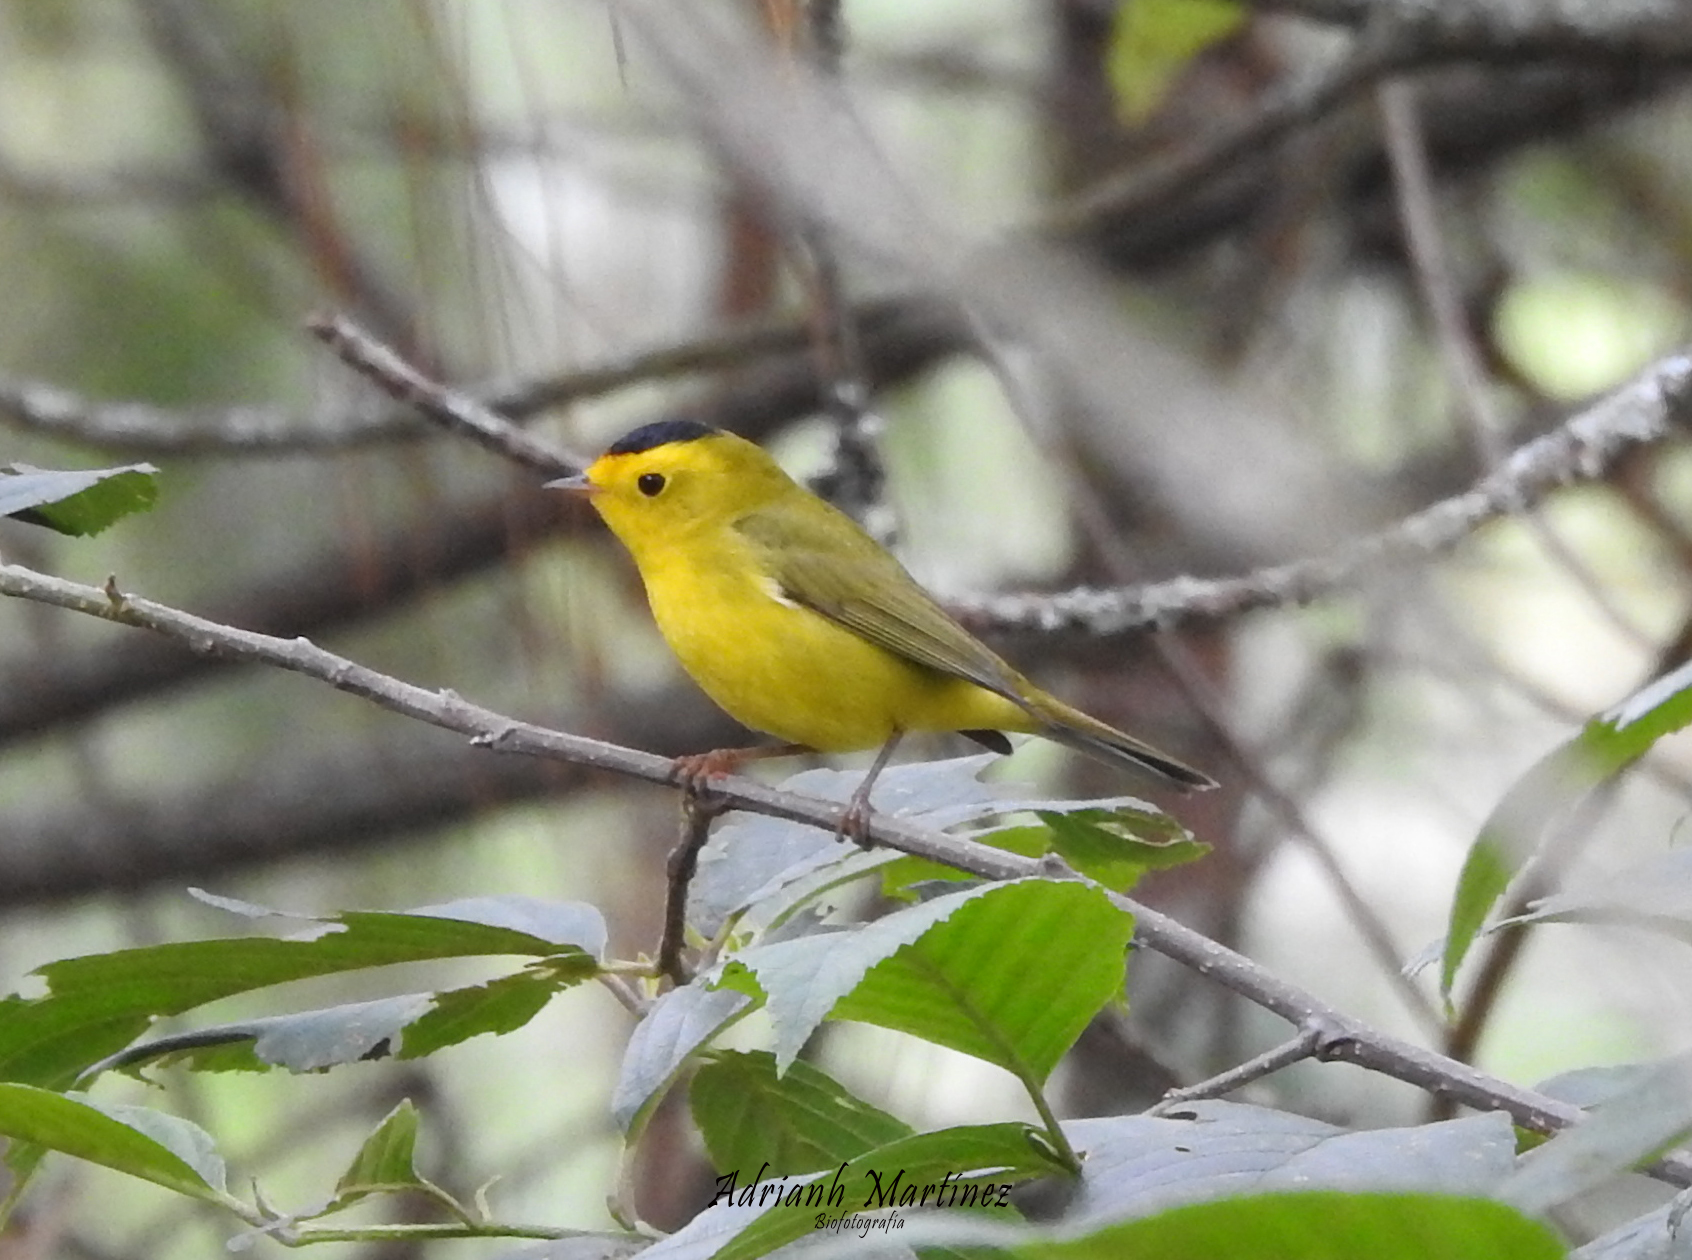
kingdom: Animalia
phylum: Chordata
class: Aves
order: Passeriformes
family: Parulidae
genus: Cardellina
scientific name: Cardellina pusilla
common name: Wilson's warbler
